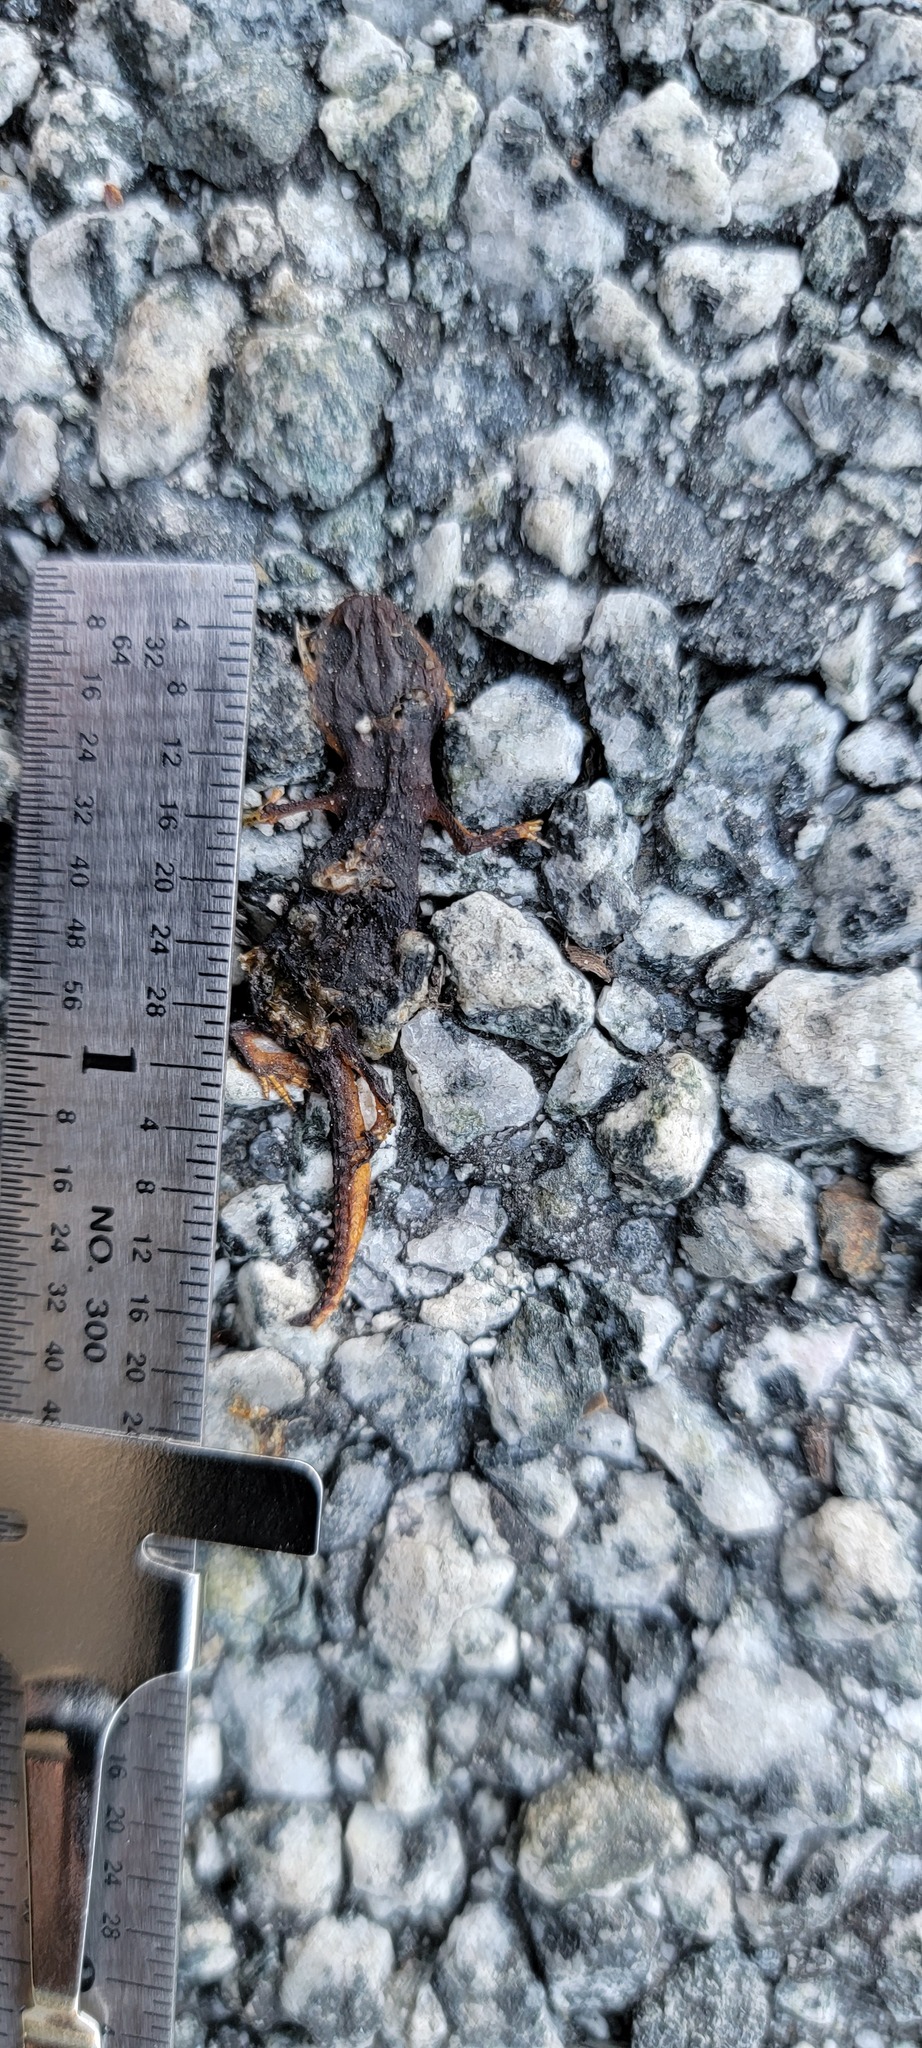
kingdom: Animalia
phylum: Chordata
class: Amphibia
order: Caudata
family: Salamandridae
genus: Taricha
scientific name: Taricha
